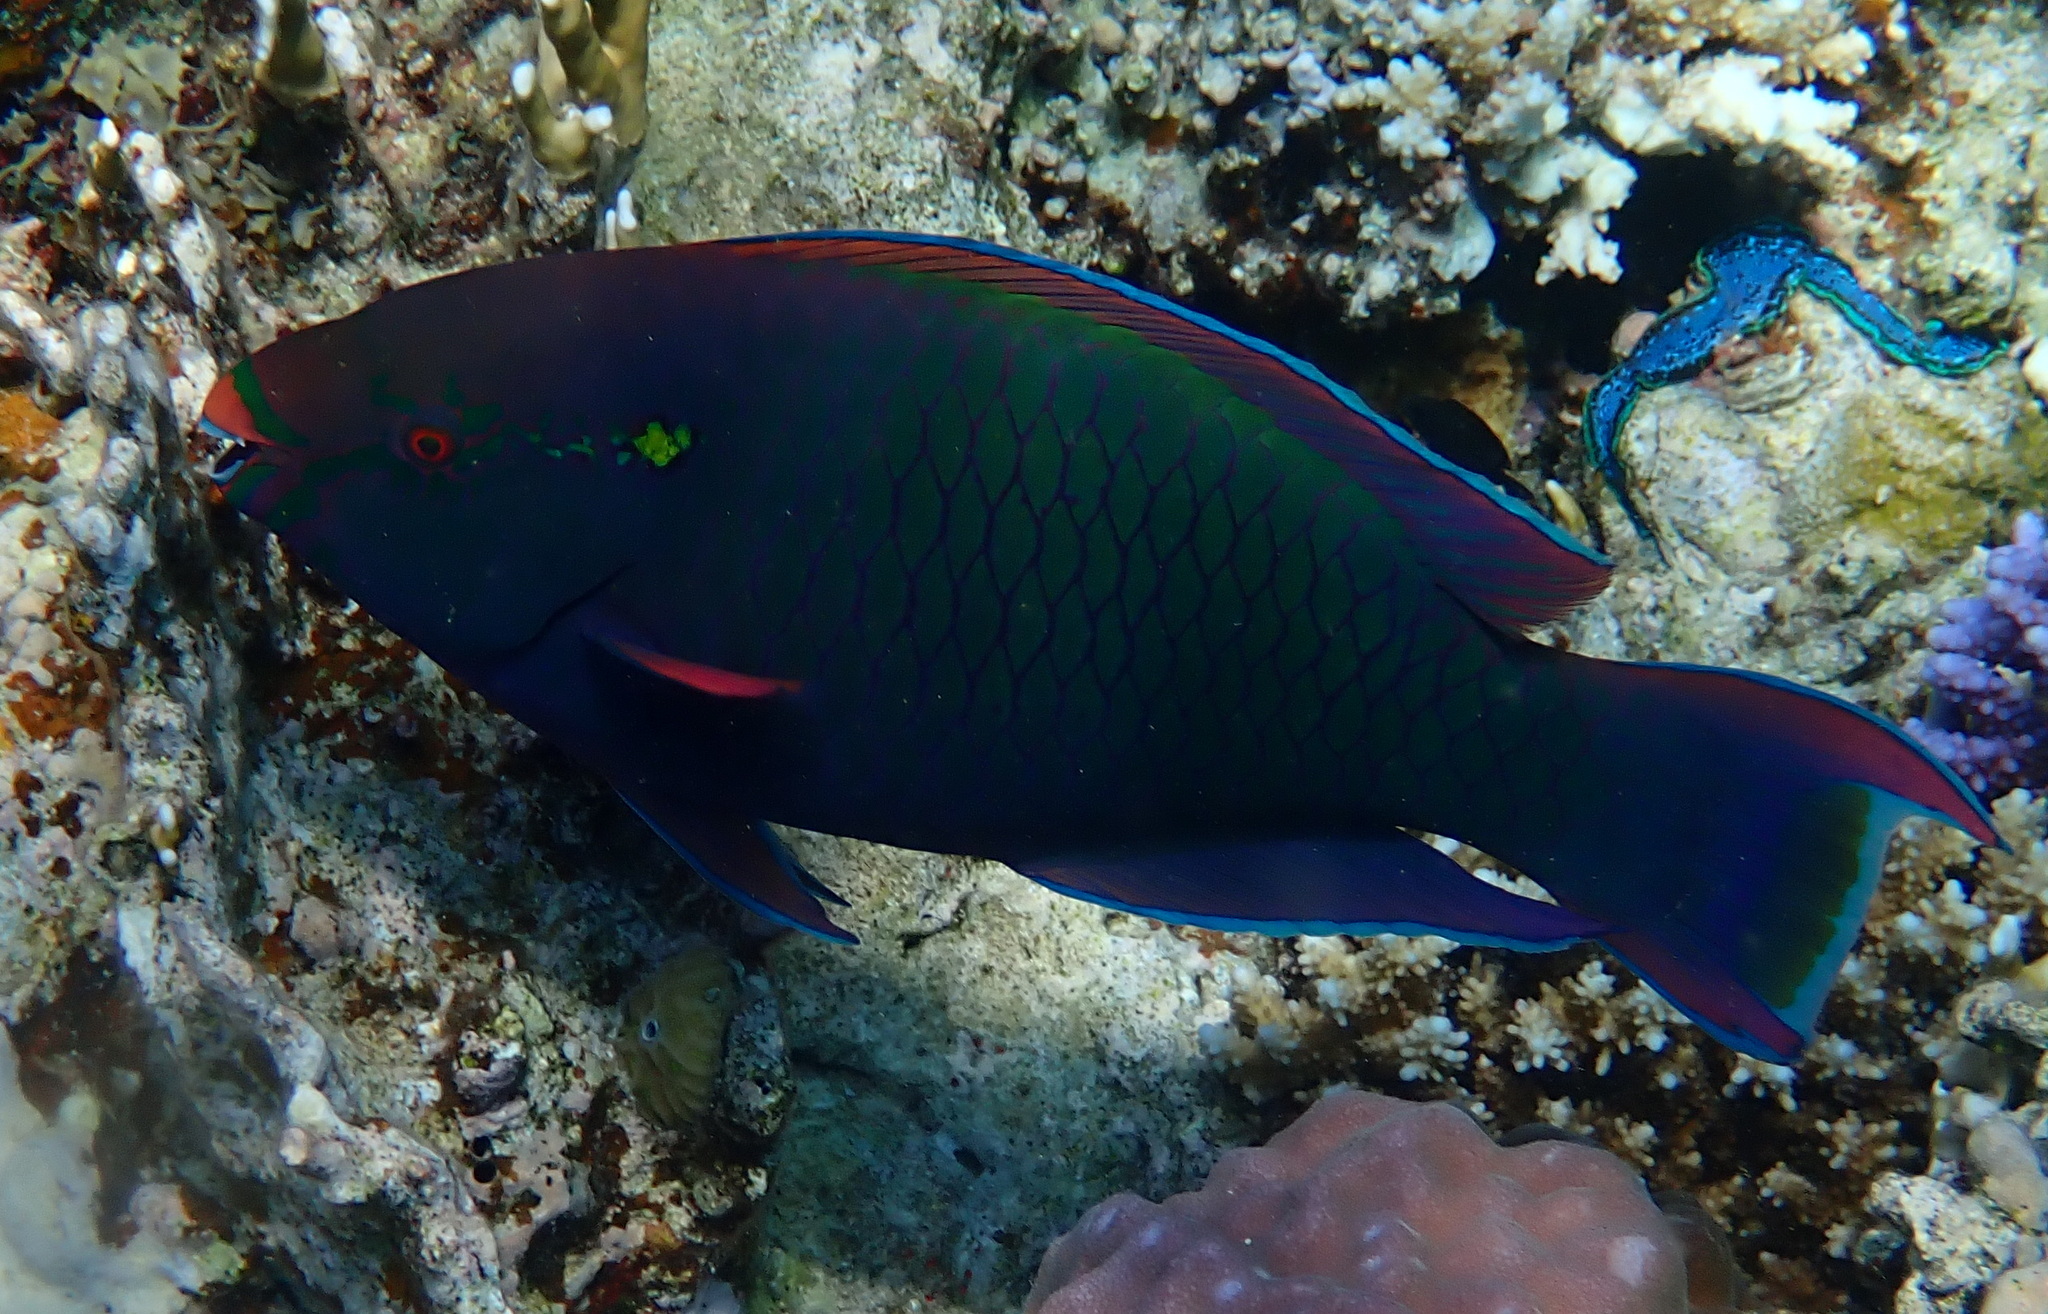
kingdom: Animalia
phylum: Chordata
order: Perciformes
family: Scaridae
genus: Scarus
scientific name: Scarus niger
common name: Dusky parrotfish
